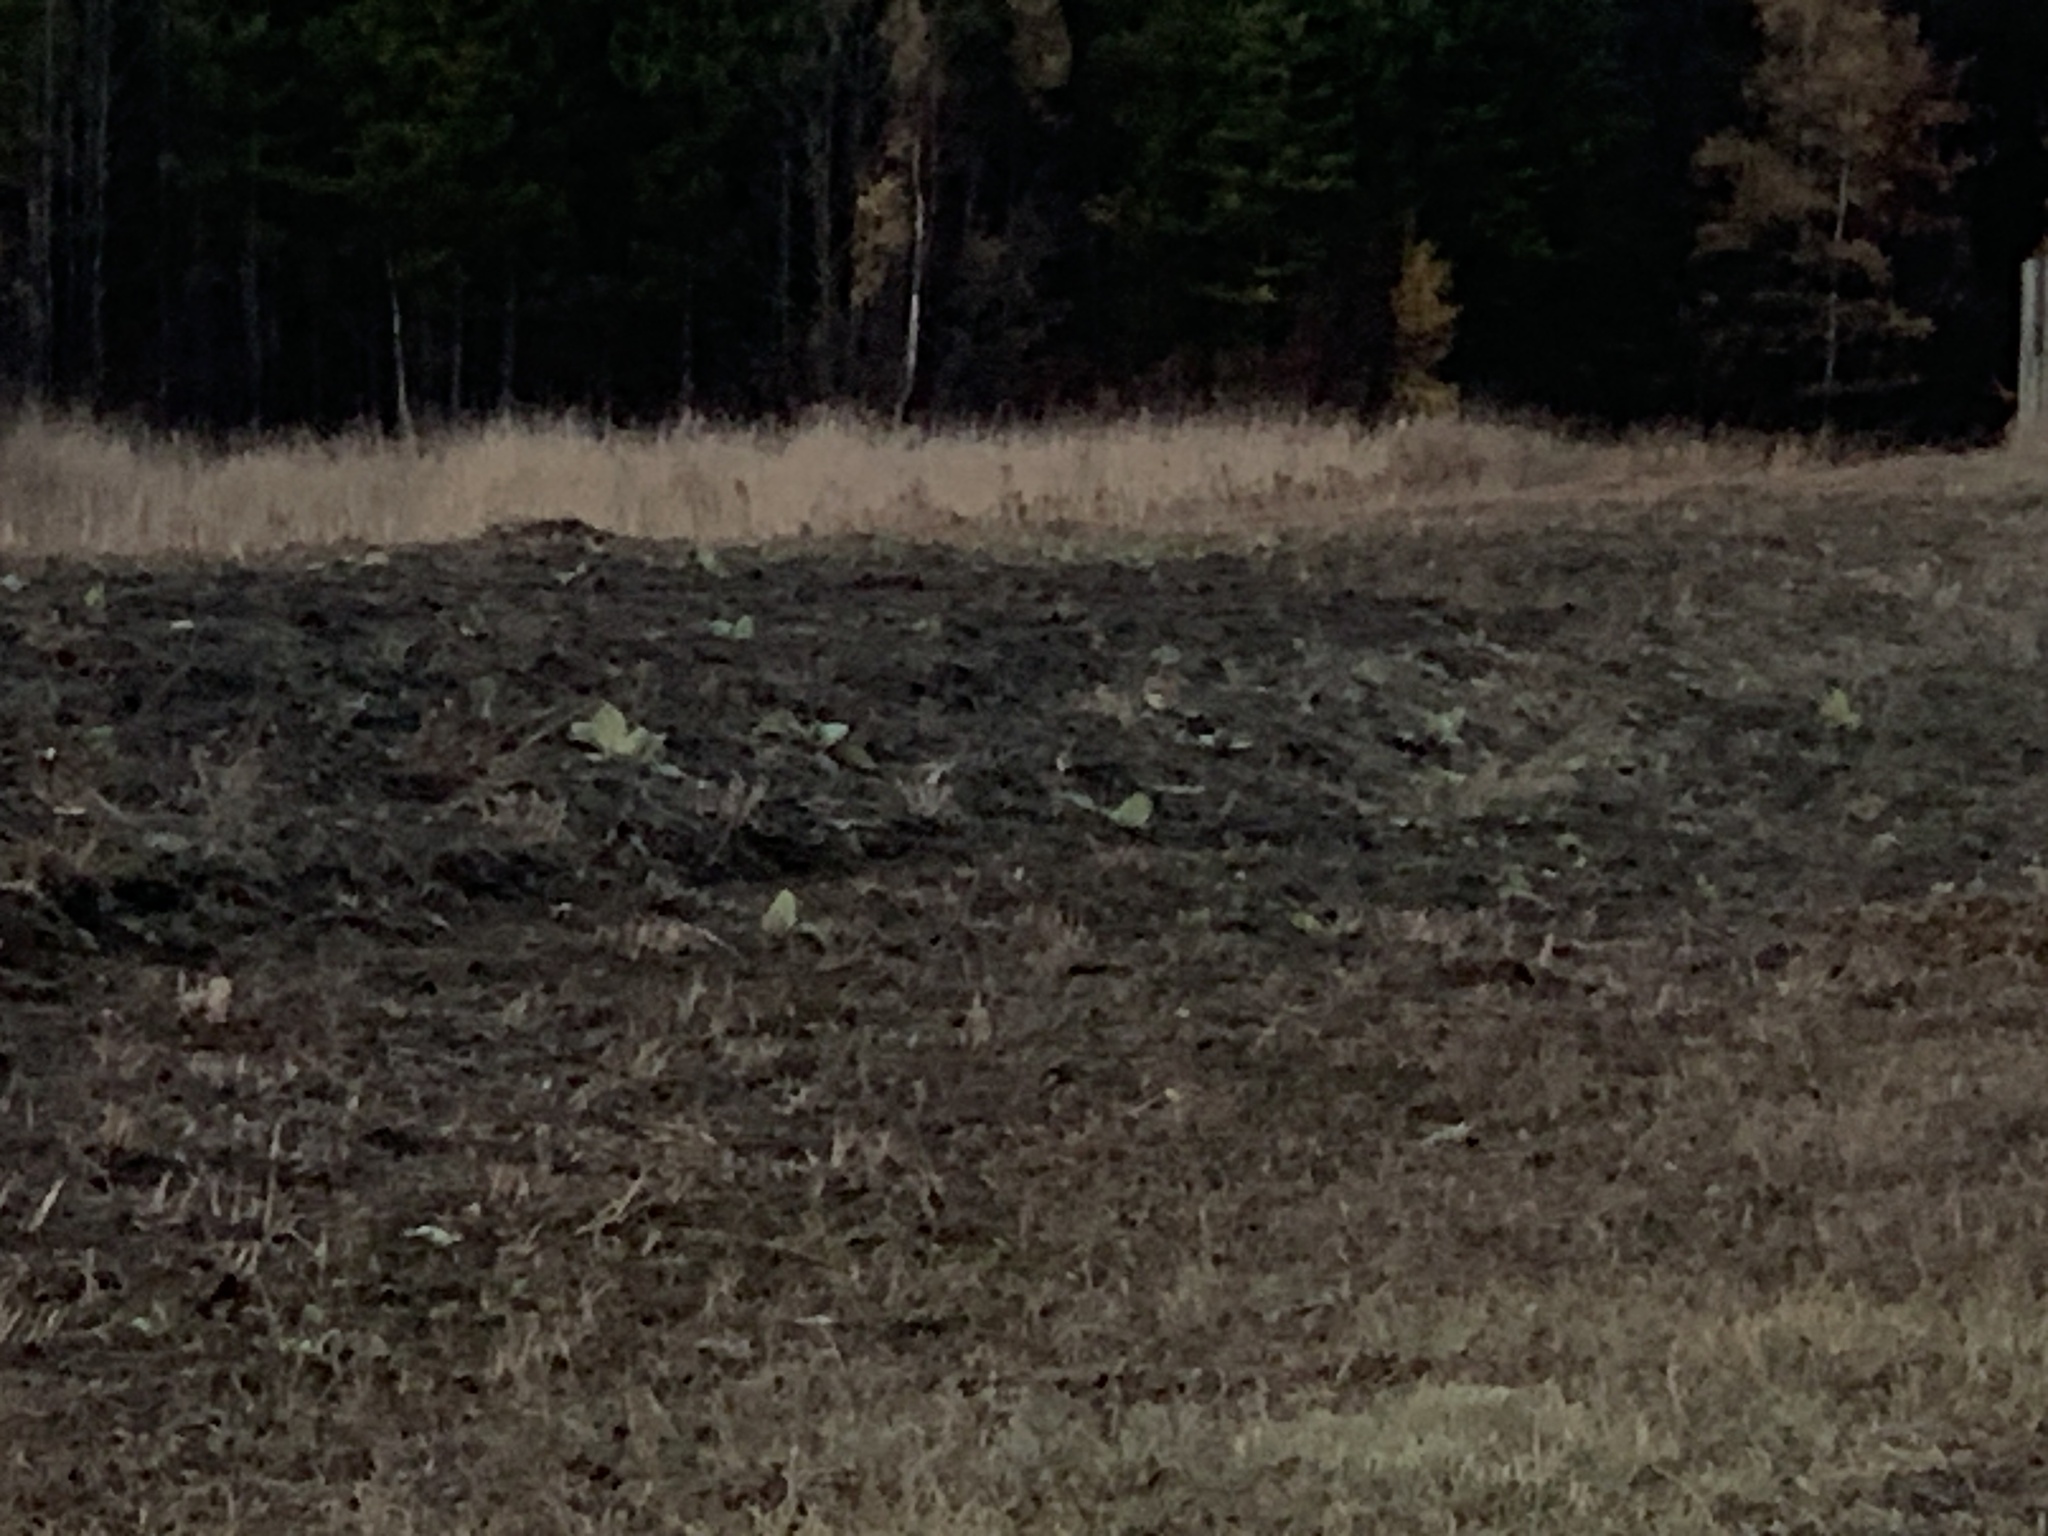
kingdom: Animalia
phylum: Chordata
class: Aves
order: Passeriformes
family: Calcariidae
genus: Plectrophenax
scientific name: Plectrophenax nivalis
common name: Snow bunting
